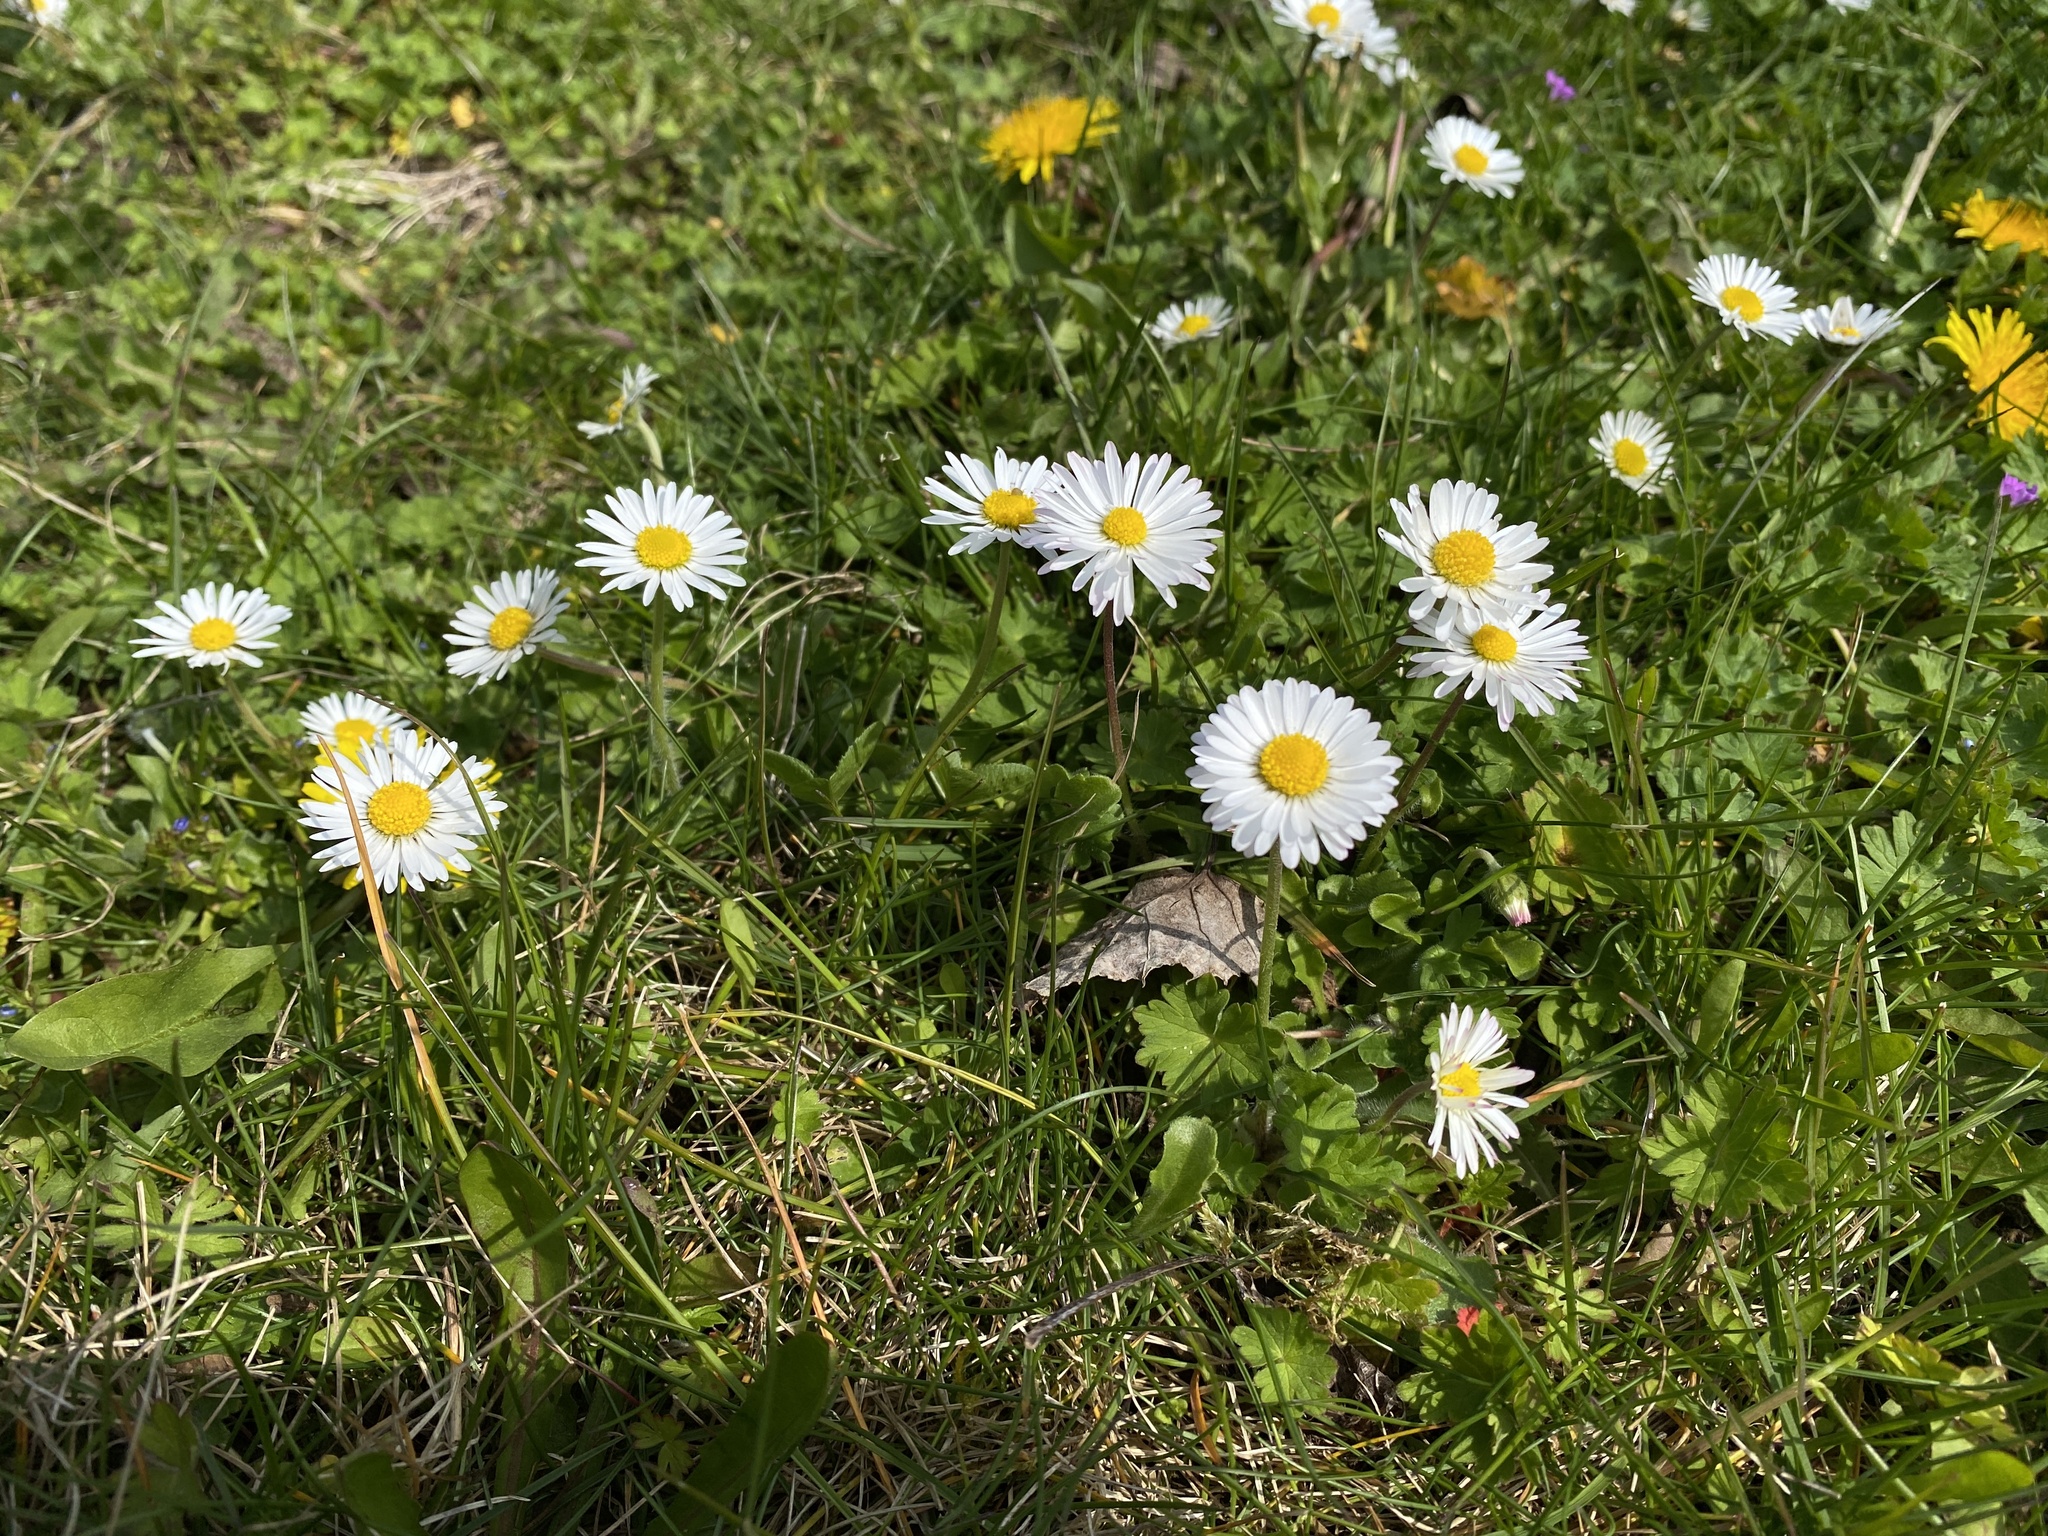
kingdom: Plantae
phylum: Tracheophyta
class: Magnoliopsida
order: Asterales
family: Asteraceae
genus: Bellis
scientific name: Bellis perennis
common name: Lawndaisy
